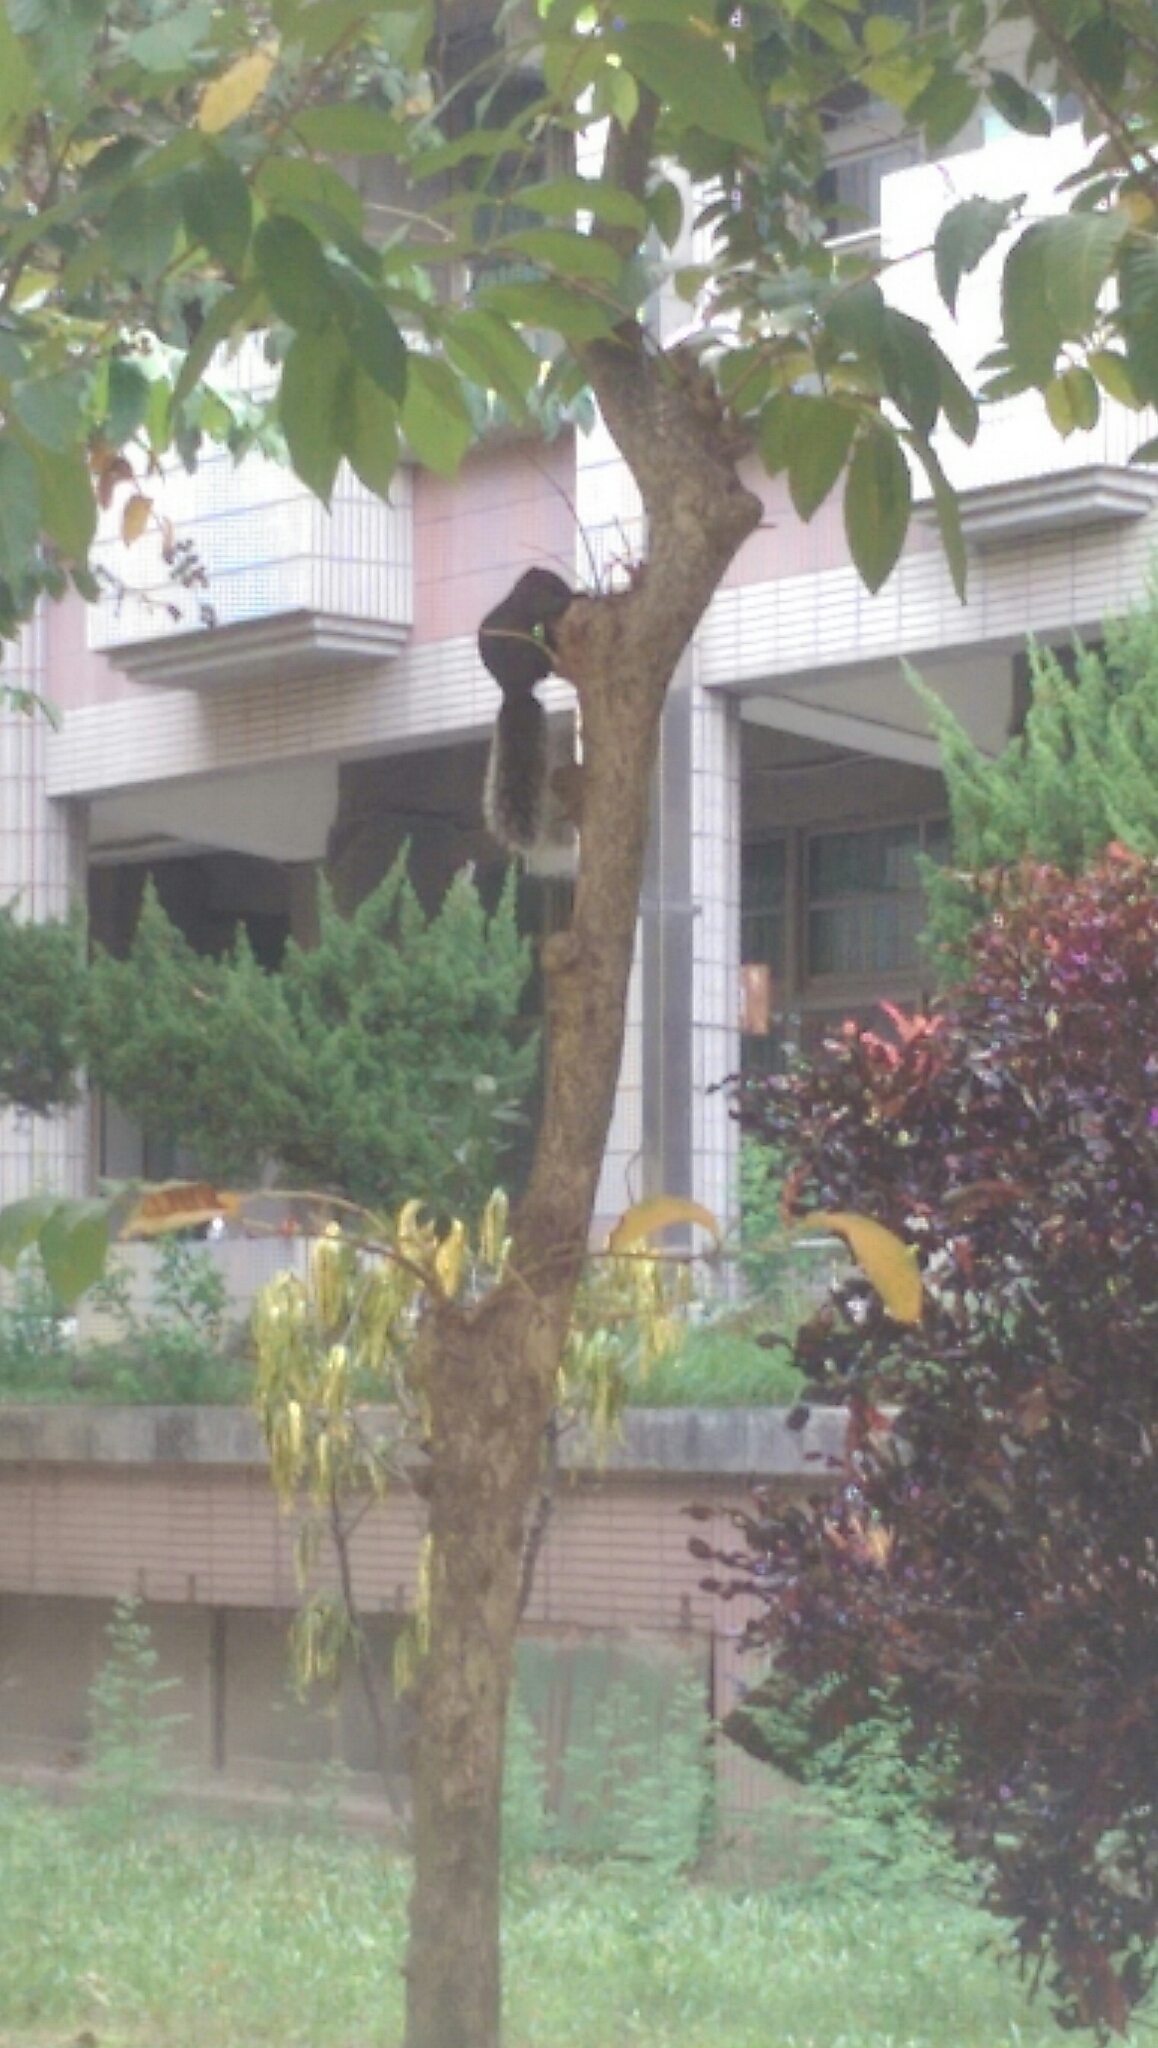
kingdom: Animalia
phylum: Chordata
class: Mammalia
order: Rodentia
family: Sciuridae
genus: Callosciurus
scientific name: Callosciurus erythraeus
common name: Pallas's squirrel
